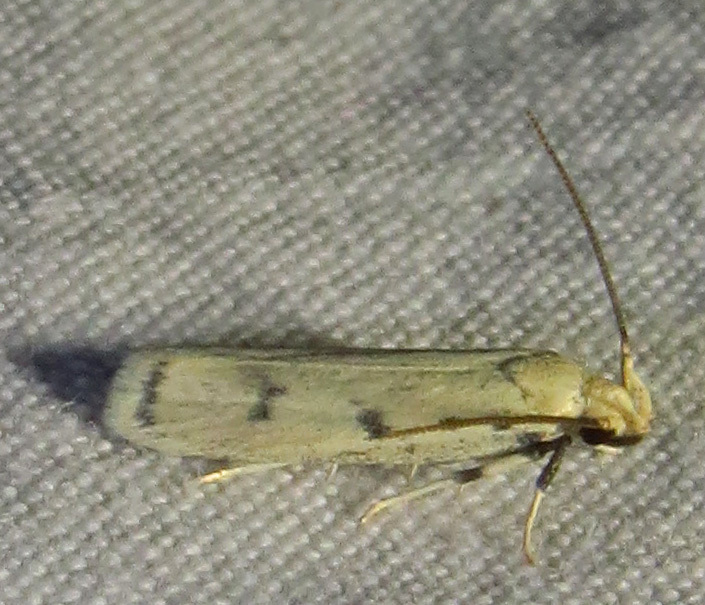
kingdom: Animalia
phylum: Arthropoda
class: Insecta
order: Lepidoptera
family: Autostichidae
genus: Glyphidocera
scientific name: Glyphidocera lactiflosella
